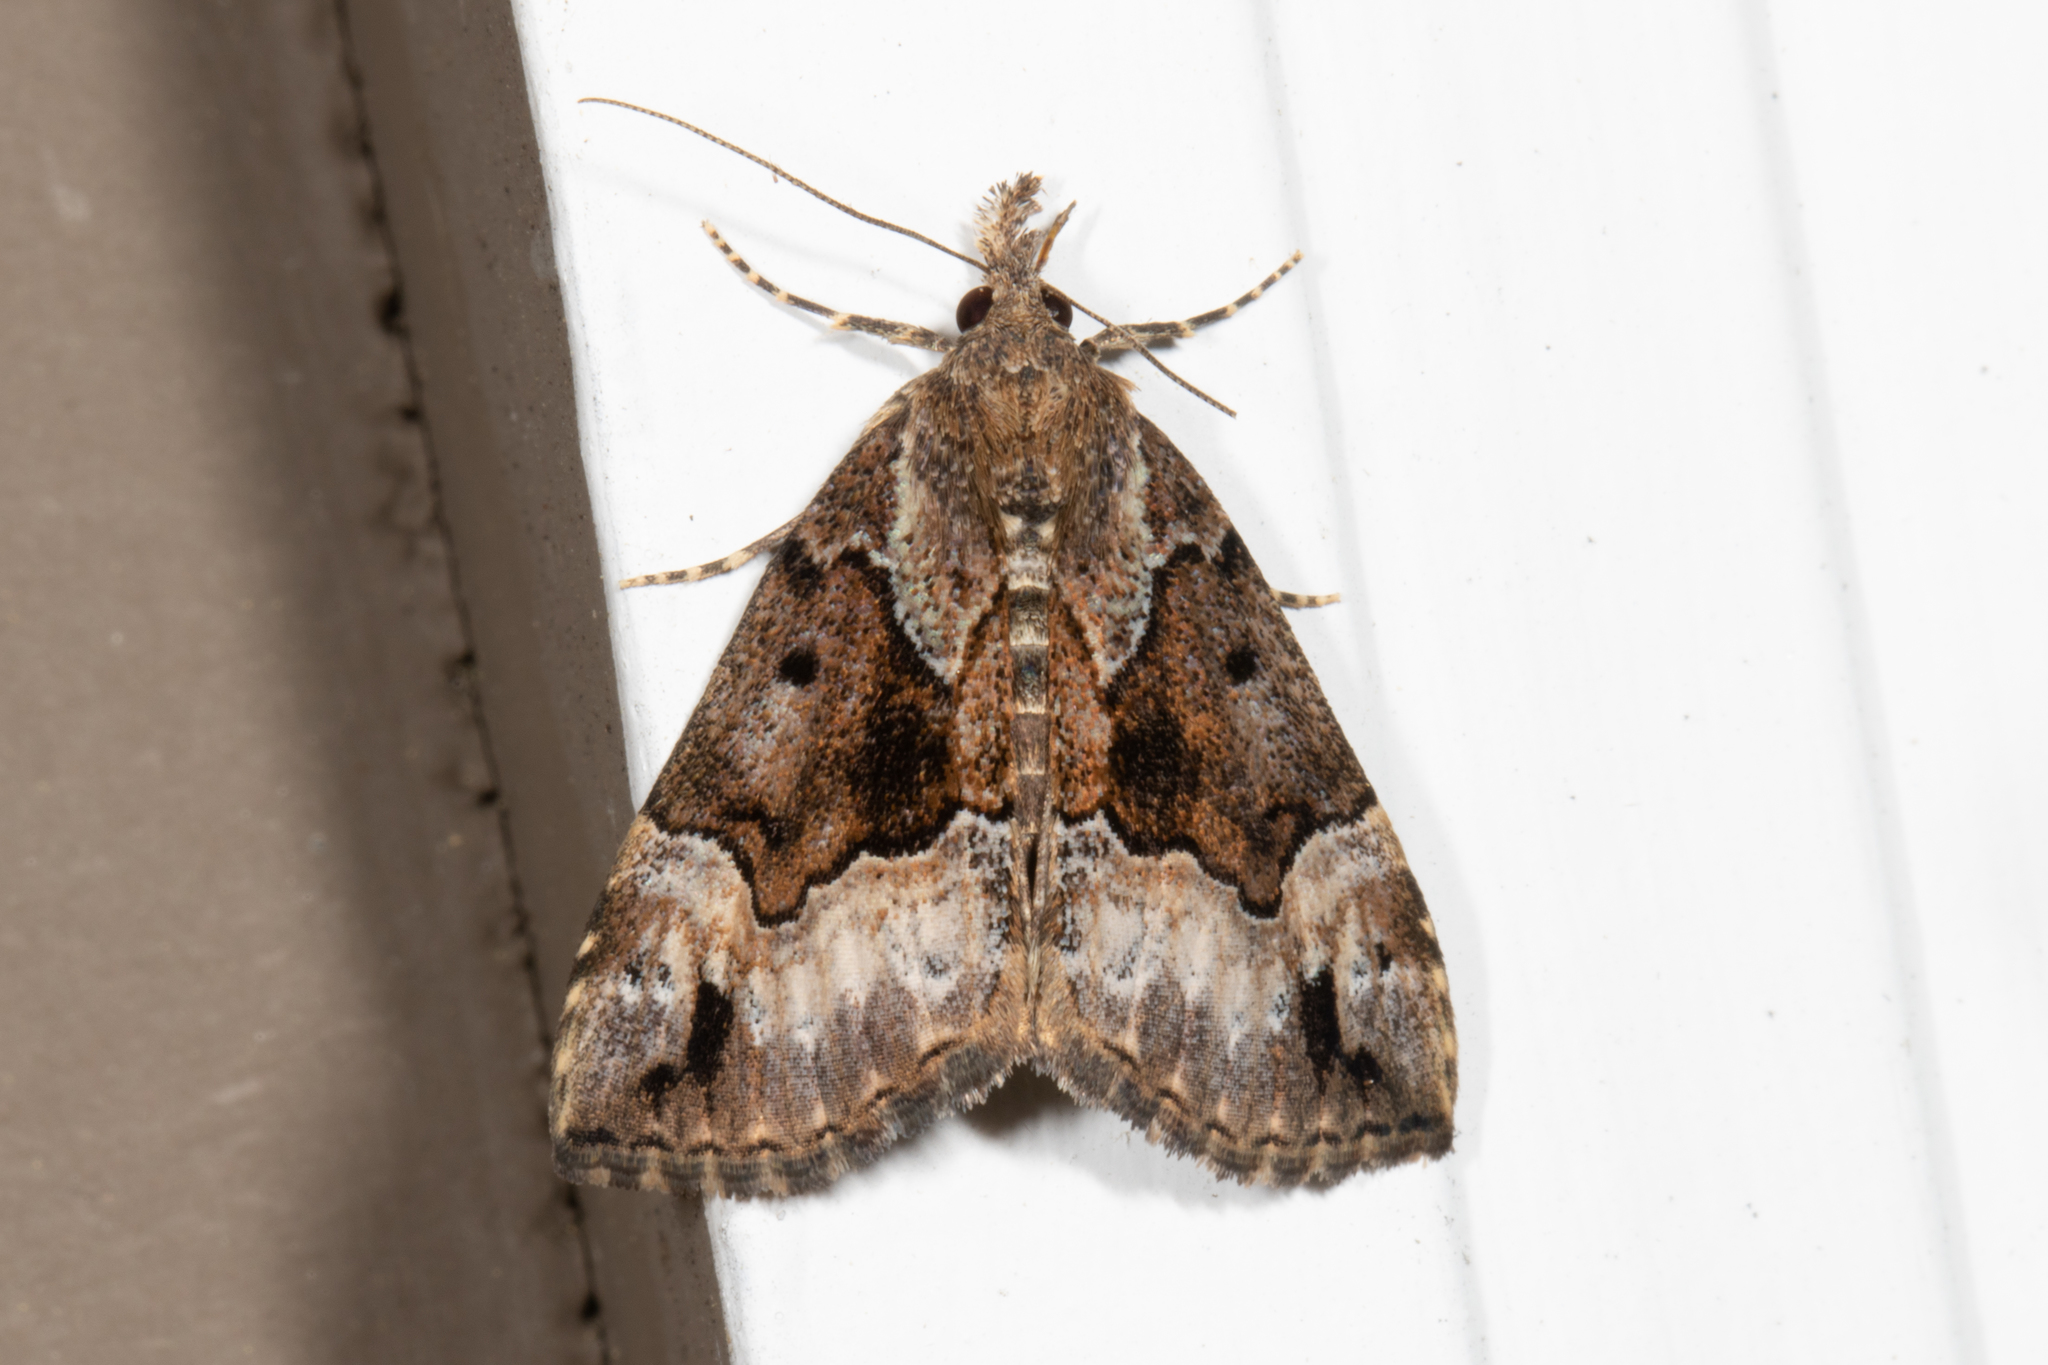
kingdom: Animalia
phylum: Arthropoda
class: Insecta
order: Lepidoptera
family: Erebidae
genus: Hypena
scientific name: Hypena palparia
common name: Mottled bomolocha moth
